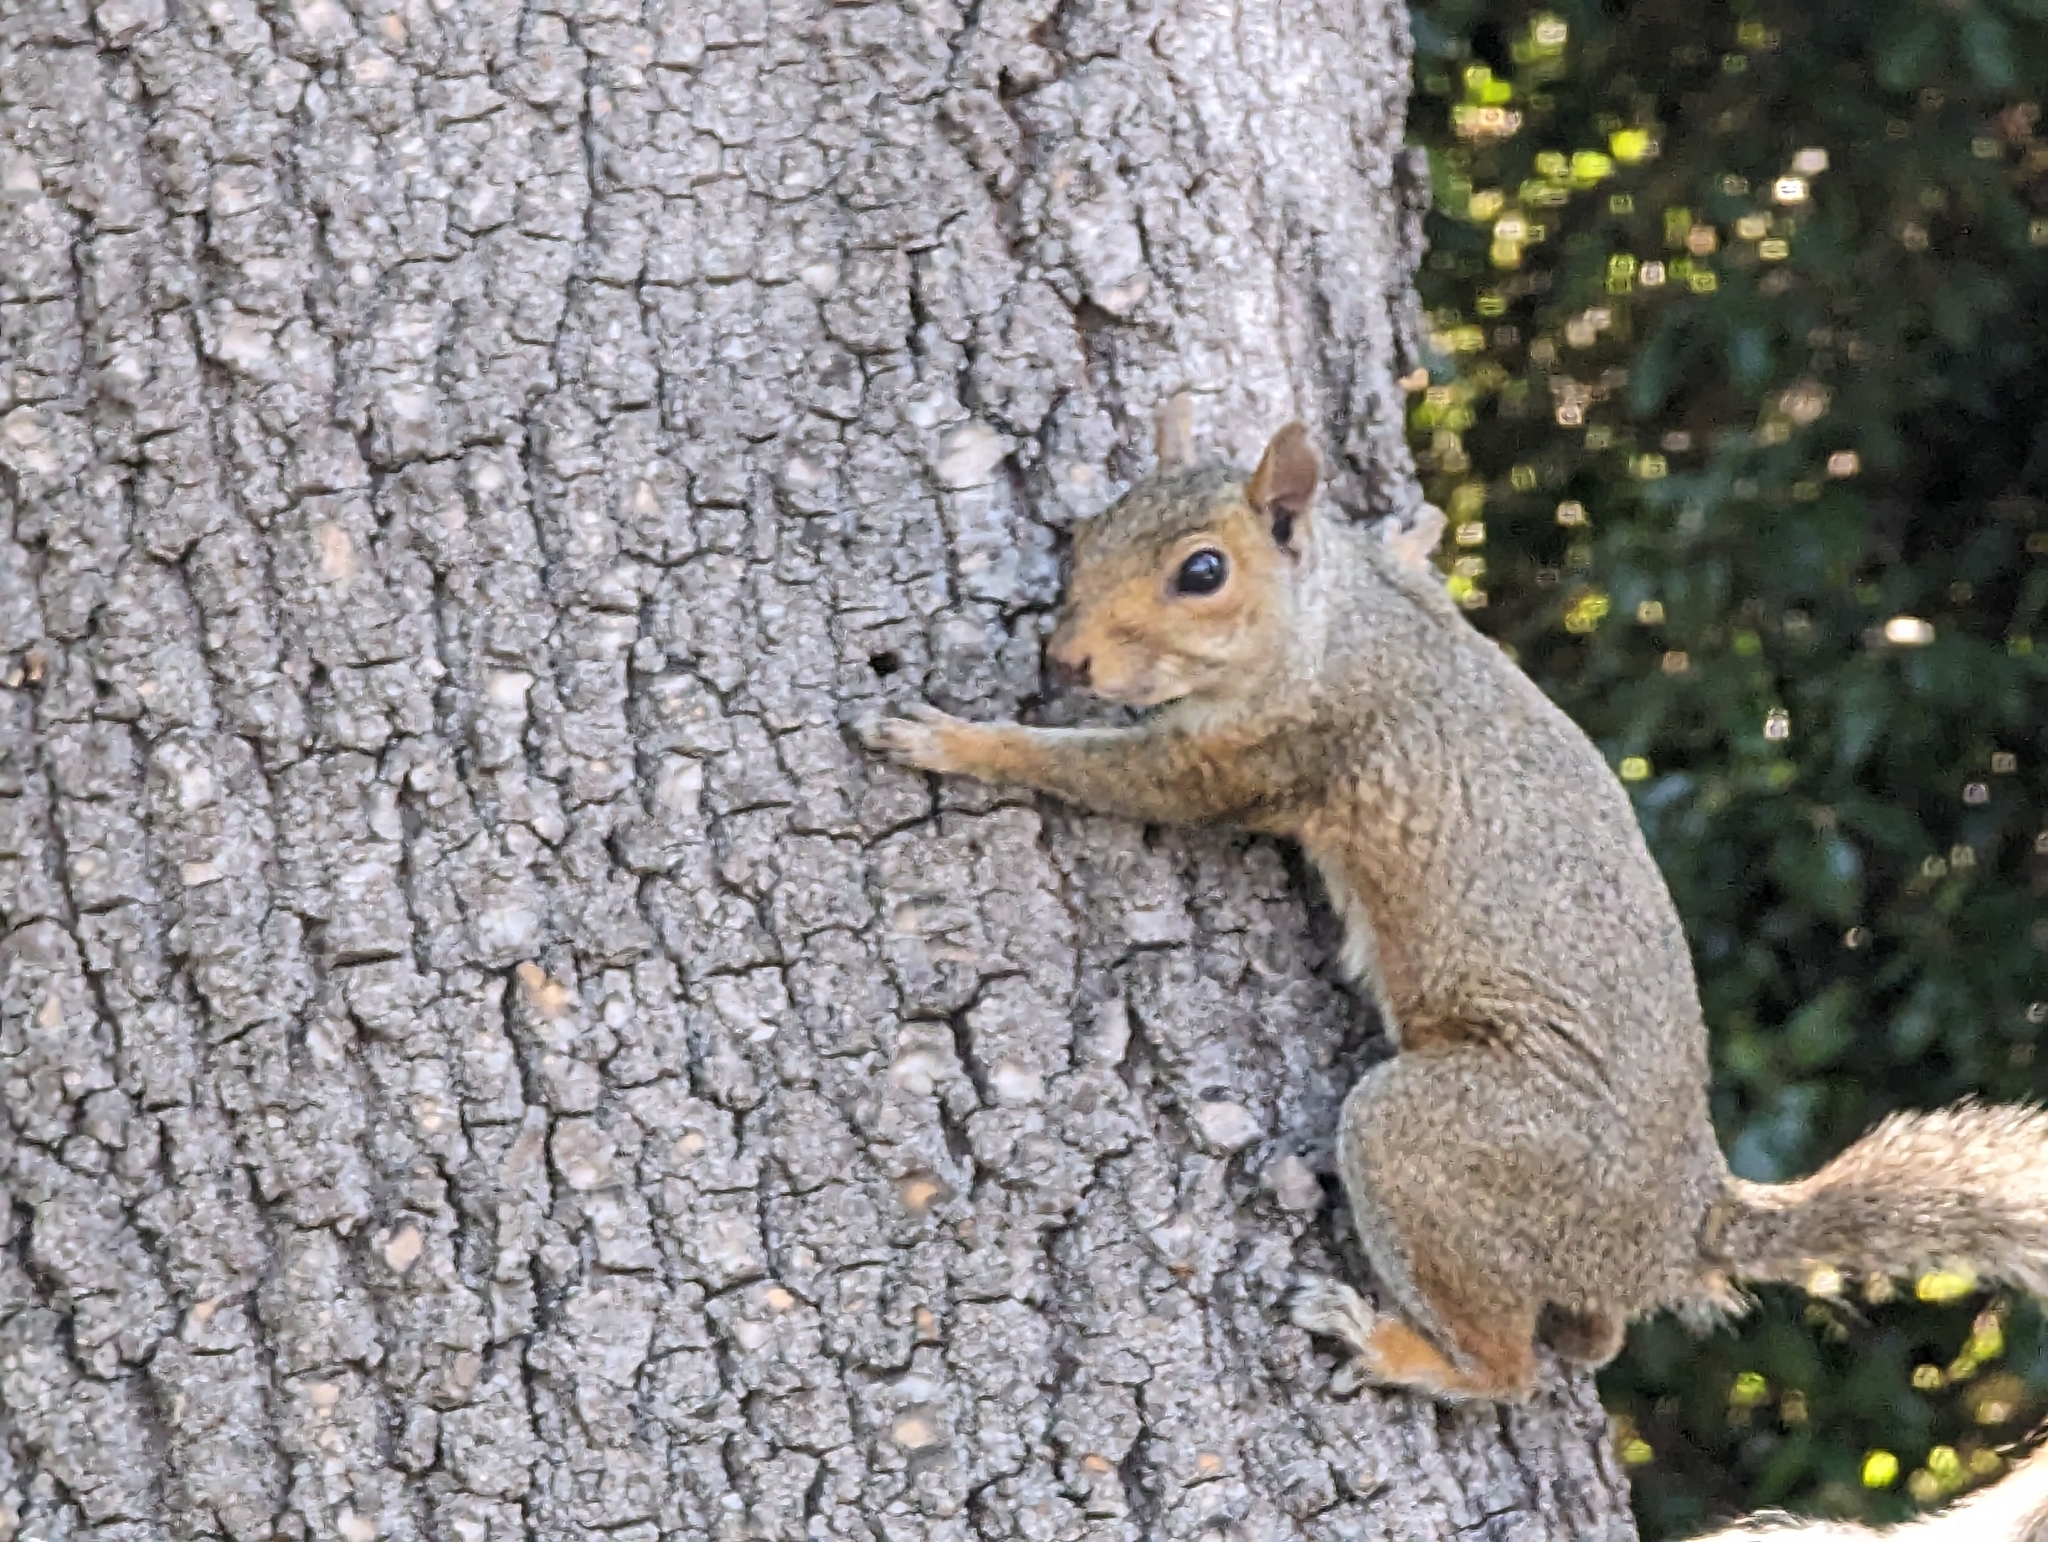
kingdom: Animalia
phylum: Chordata
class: Mammalia
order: Rodentia
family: Sciuridae
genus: Sciurus
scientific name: Sciurus carolinensis
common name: Eastern gray squirrel
